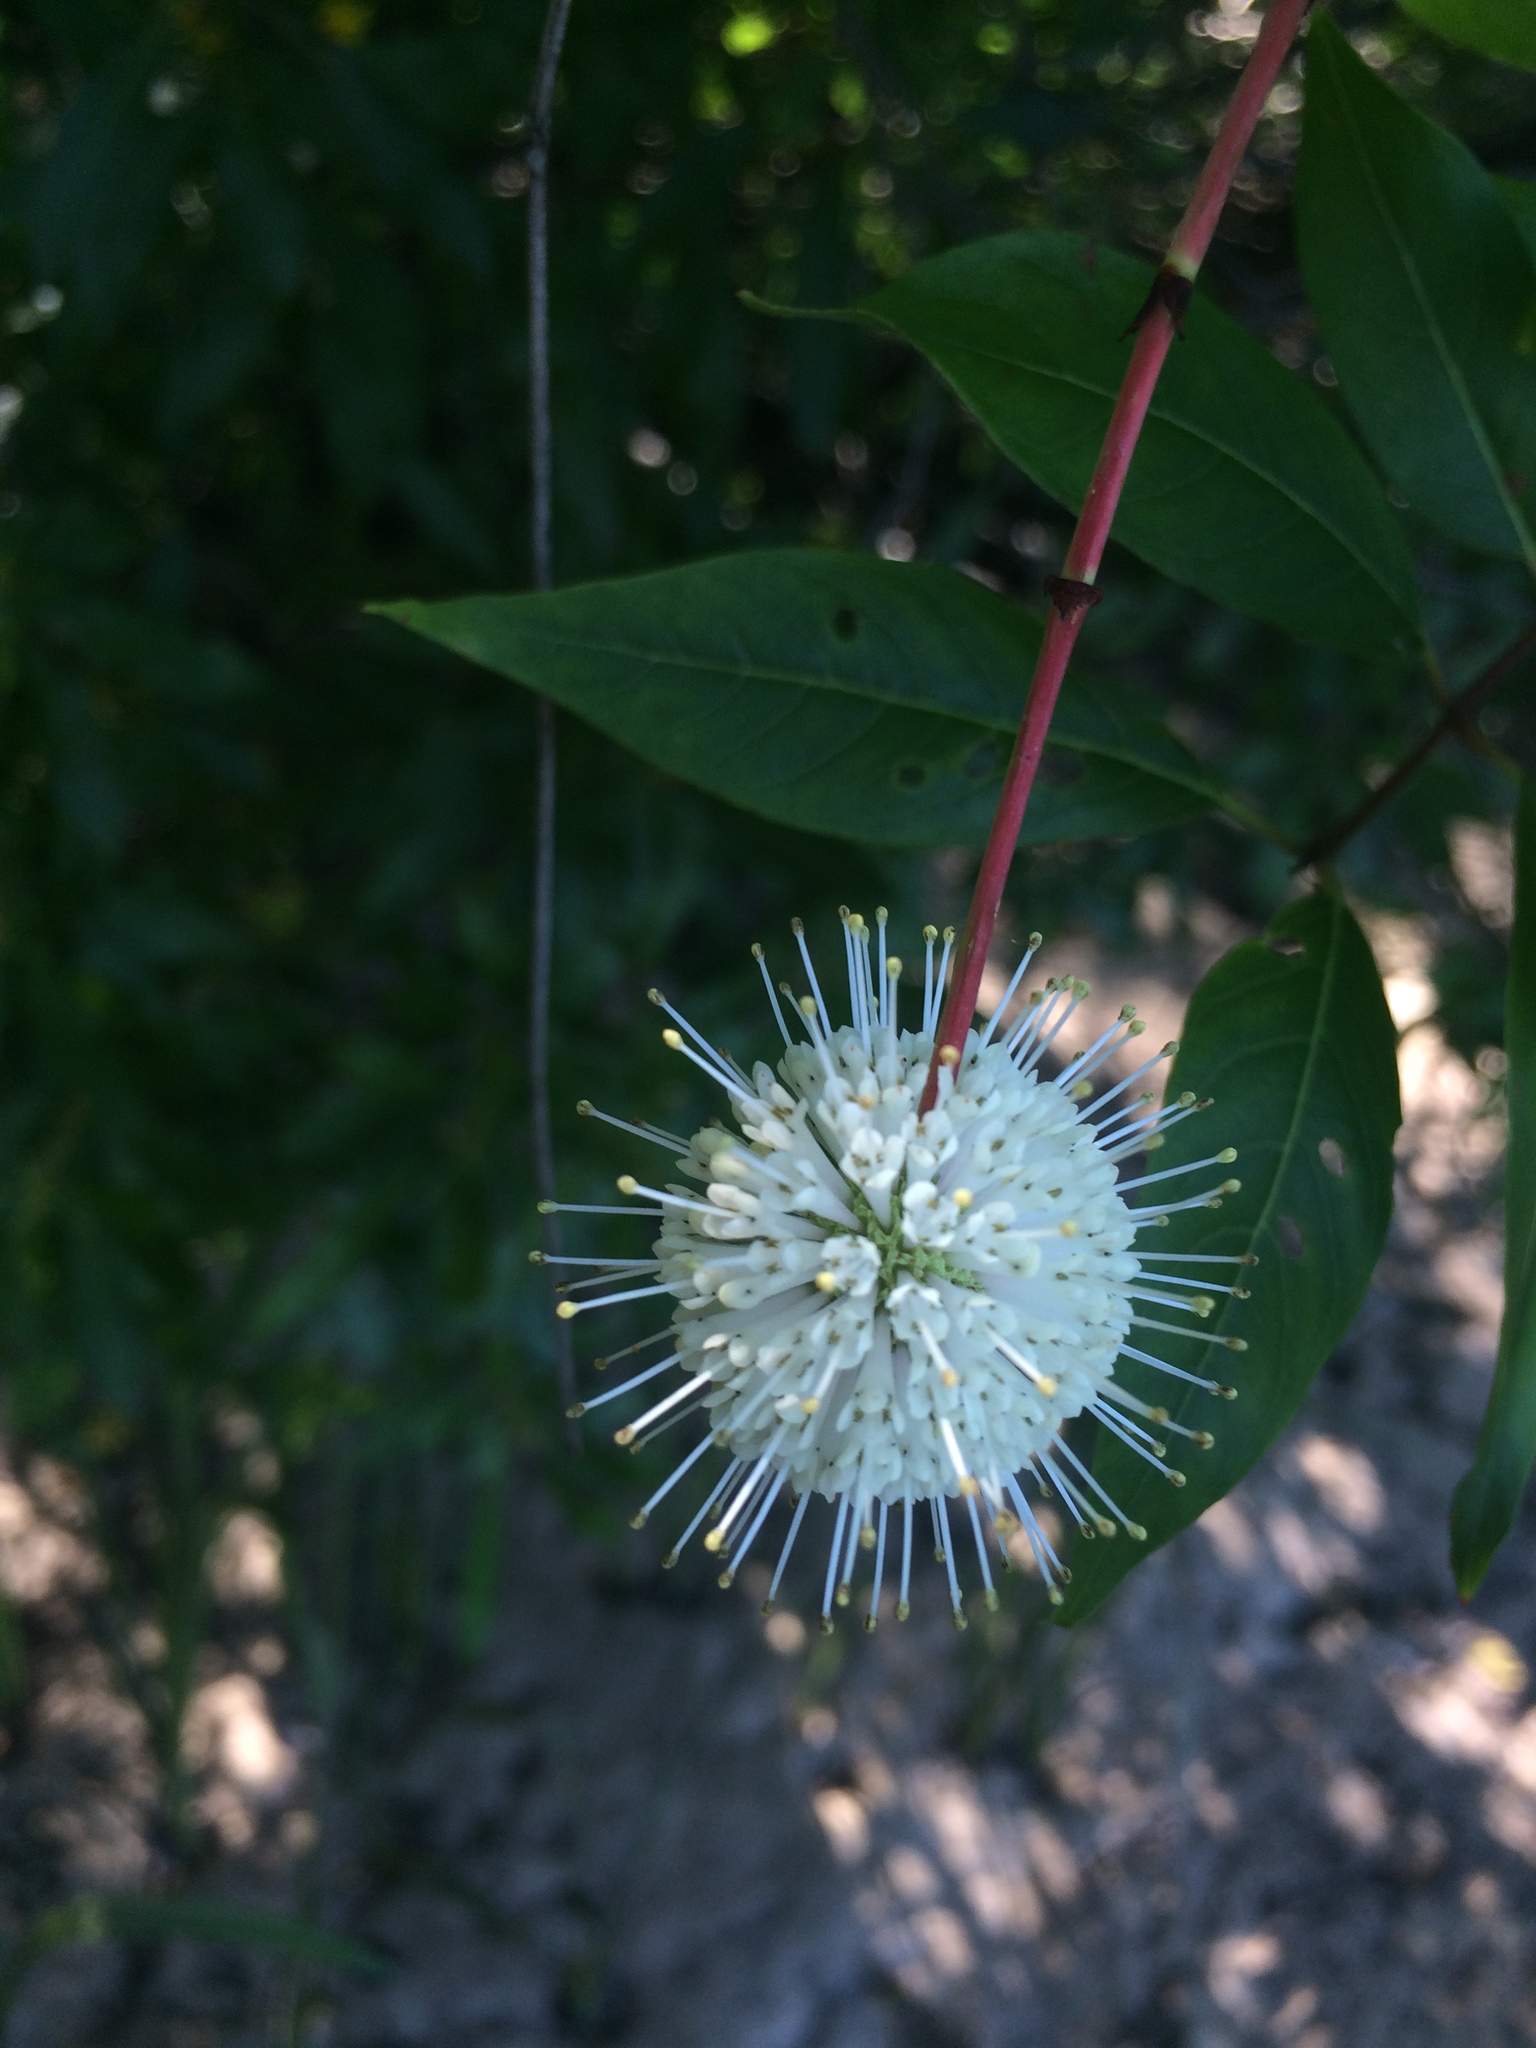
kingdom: Plantae
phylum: Tracheophyta
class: Magnoliopsida
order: Gentianales
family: Rubiaceae
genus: Cephalanthus
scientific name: Cephalanthus occidentalis
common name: Button-willow
